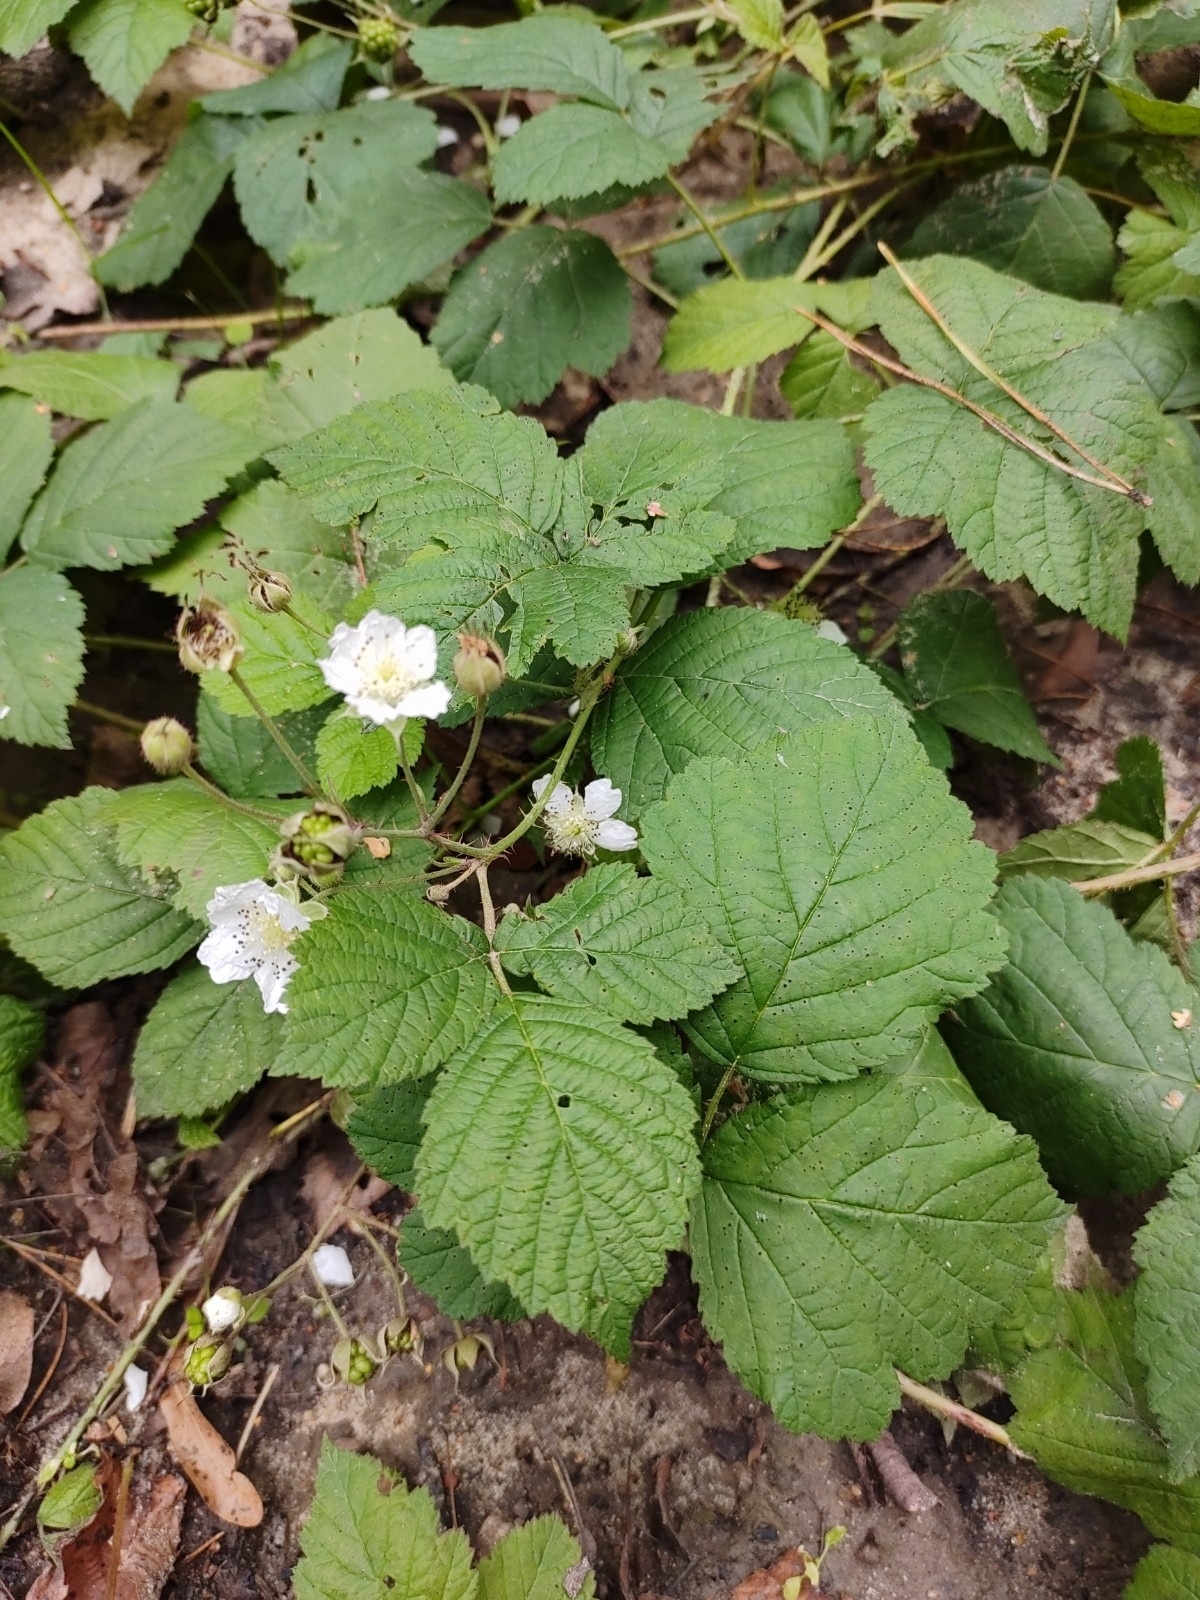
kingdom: Plantae
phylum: Tracheophyta
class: Magnoliopsida
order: Rosales
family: Rosaceae
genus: Rubus
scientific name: Rubus caesius
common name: Dewberry
